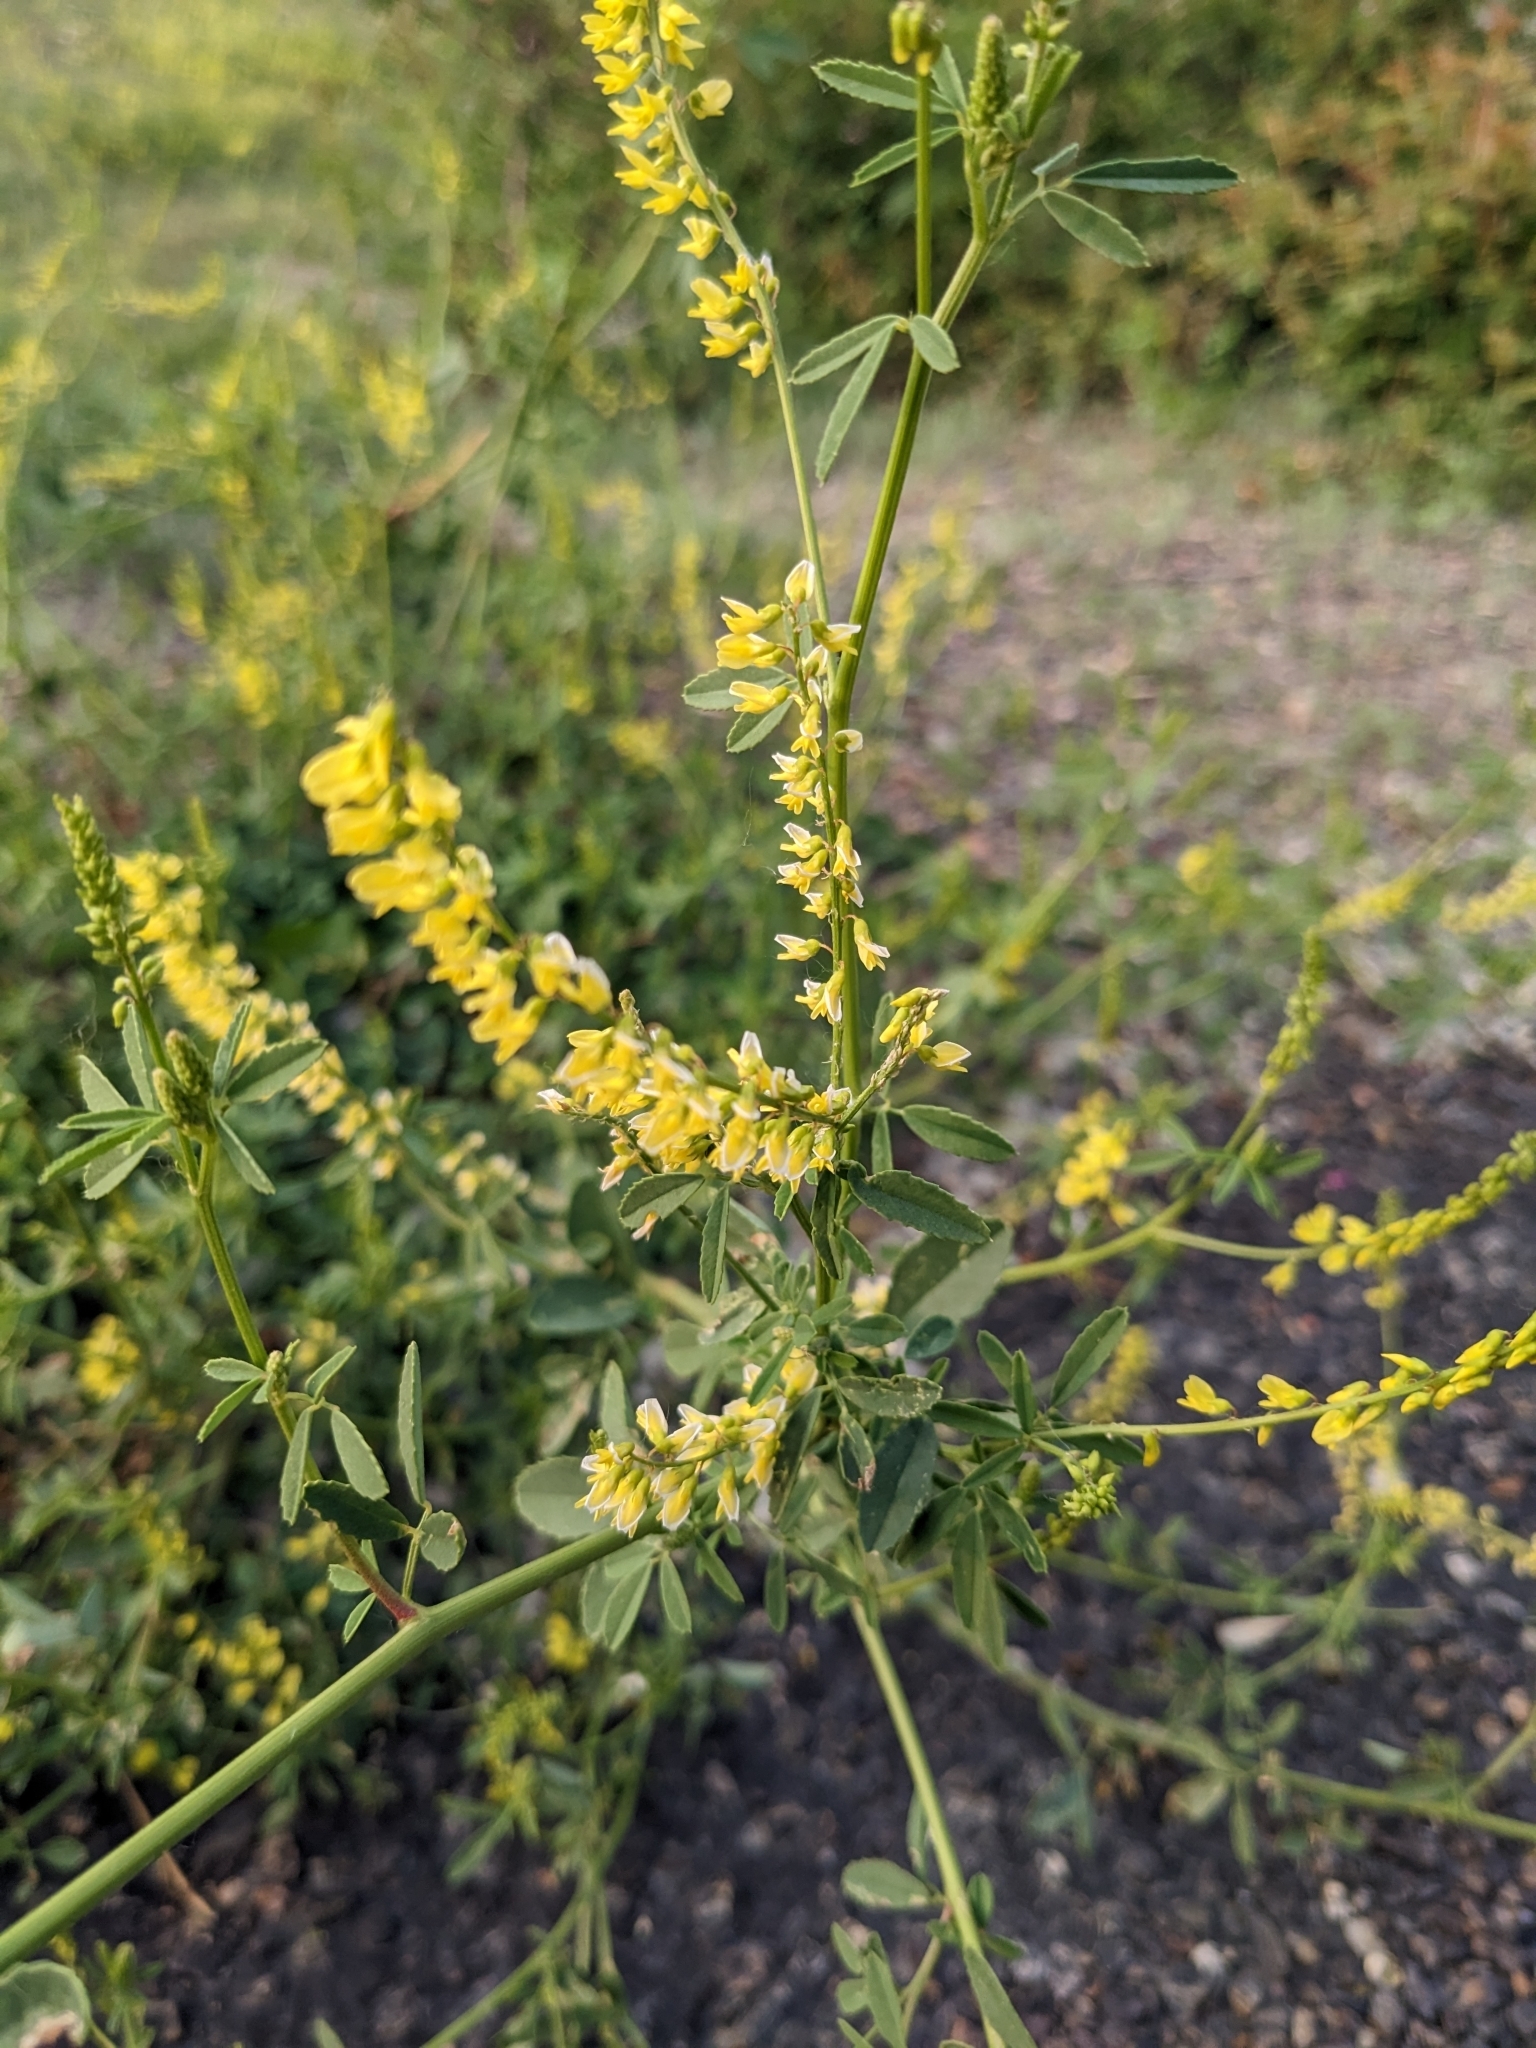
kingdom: Plantae
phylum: Tracheophyta
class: Magnoliopsida
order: Fabales
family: Fabaceae
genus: Melilotus
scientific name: Melilotus officinalis
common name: Sweetclover
